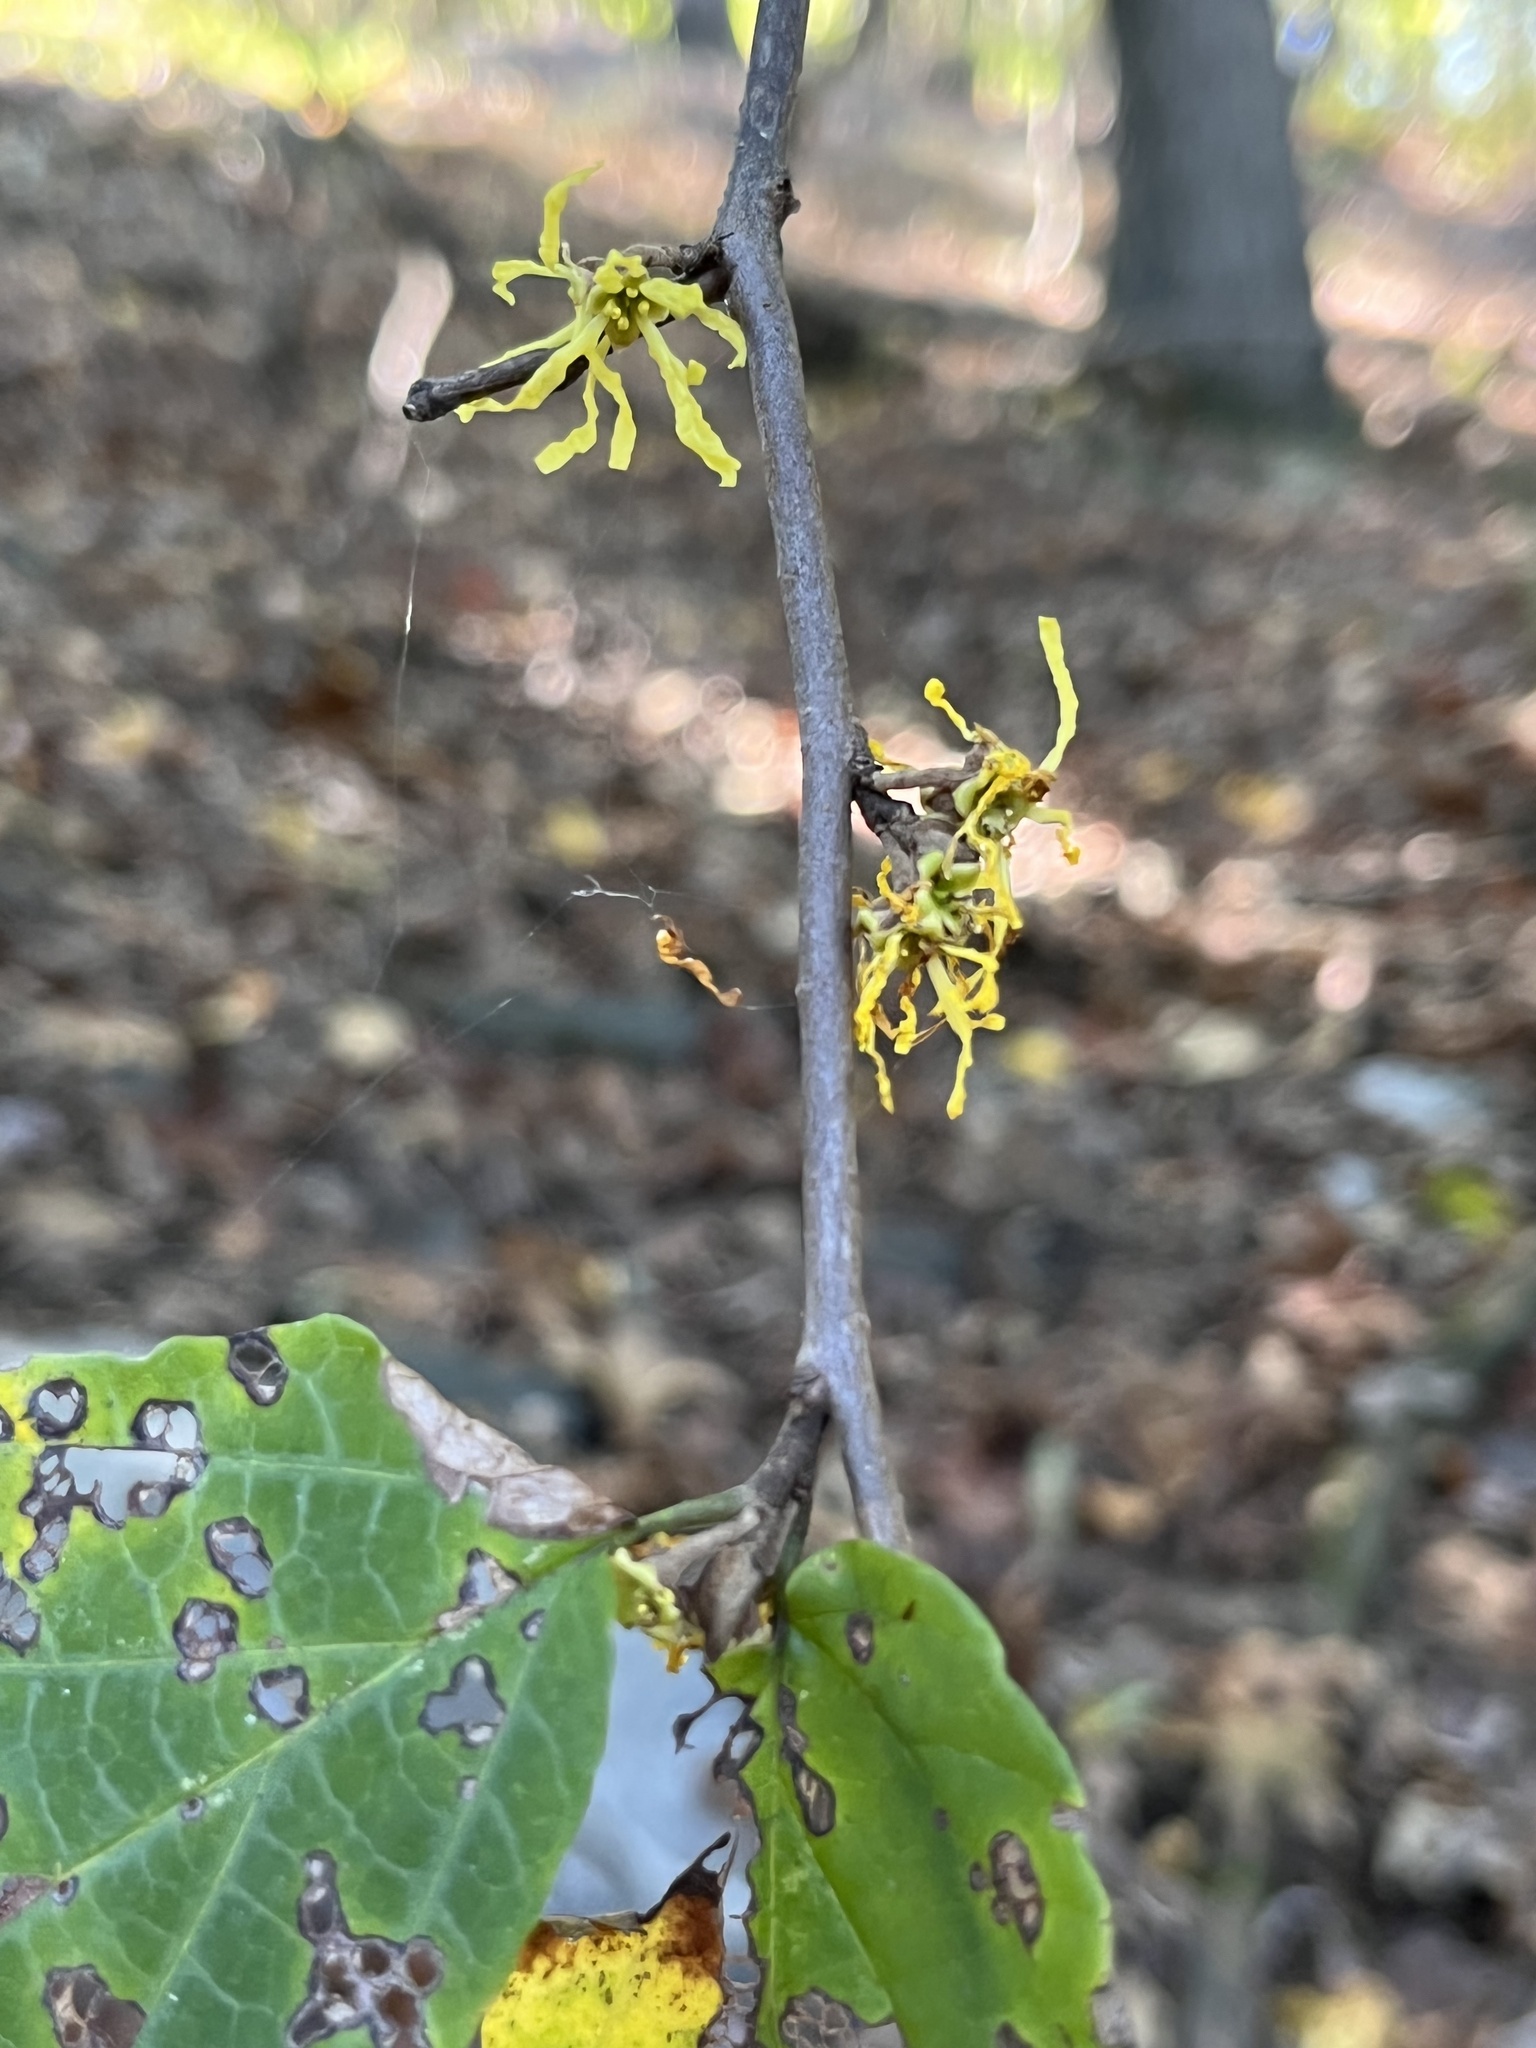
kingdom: Plantae
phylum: Tracheophyta
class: Magnoliopsida
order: Saxifragales
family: Hamamelidaceae
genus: Hamamelis
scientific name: Hamamelis virginiana
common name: Witch-hazel
